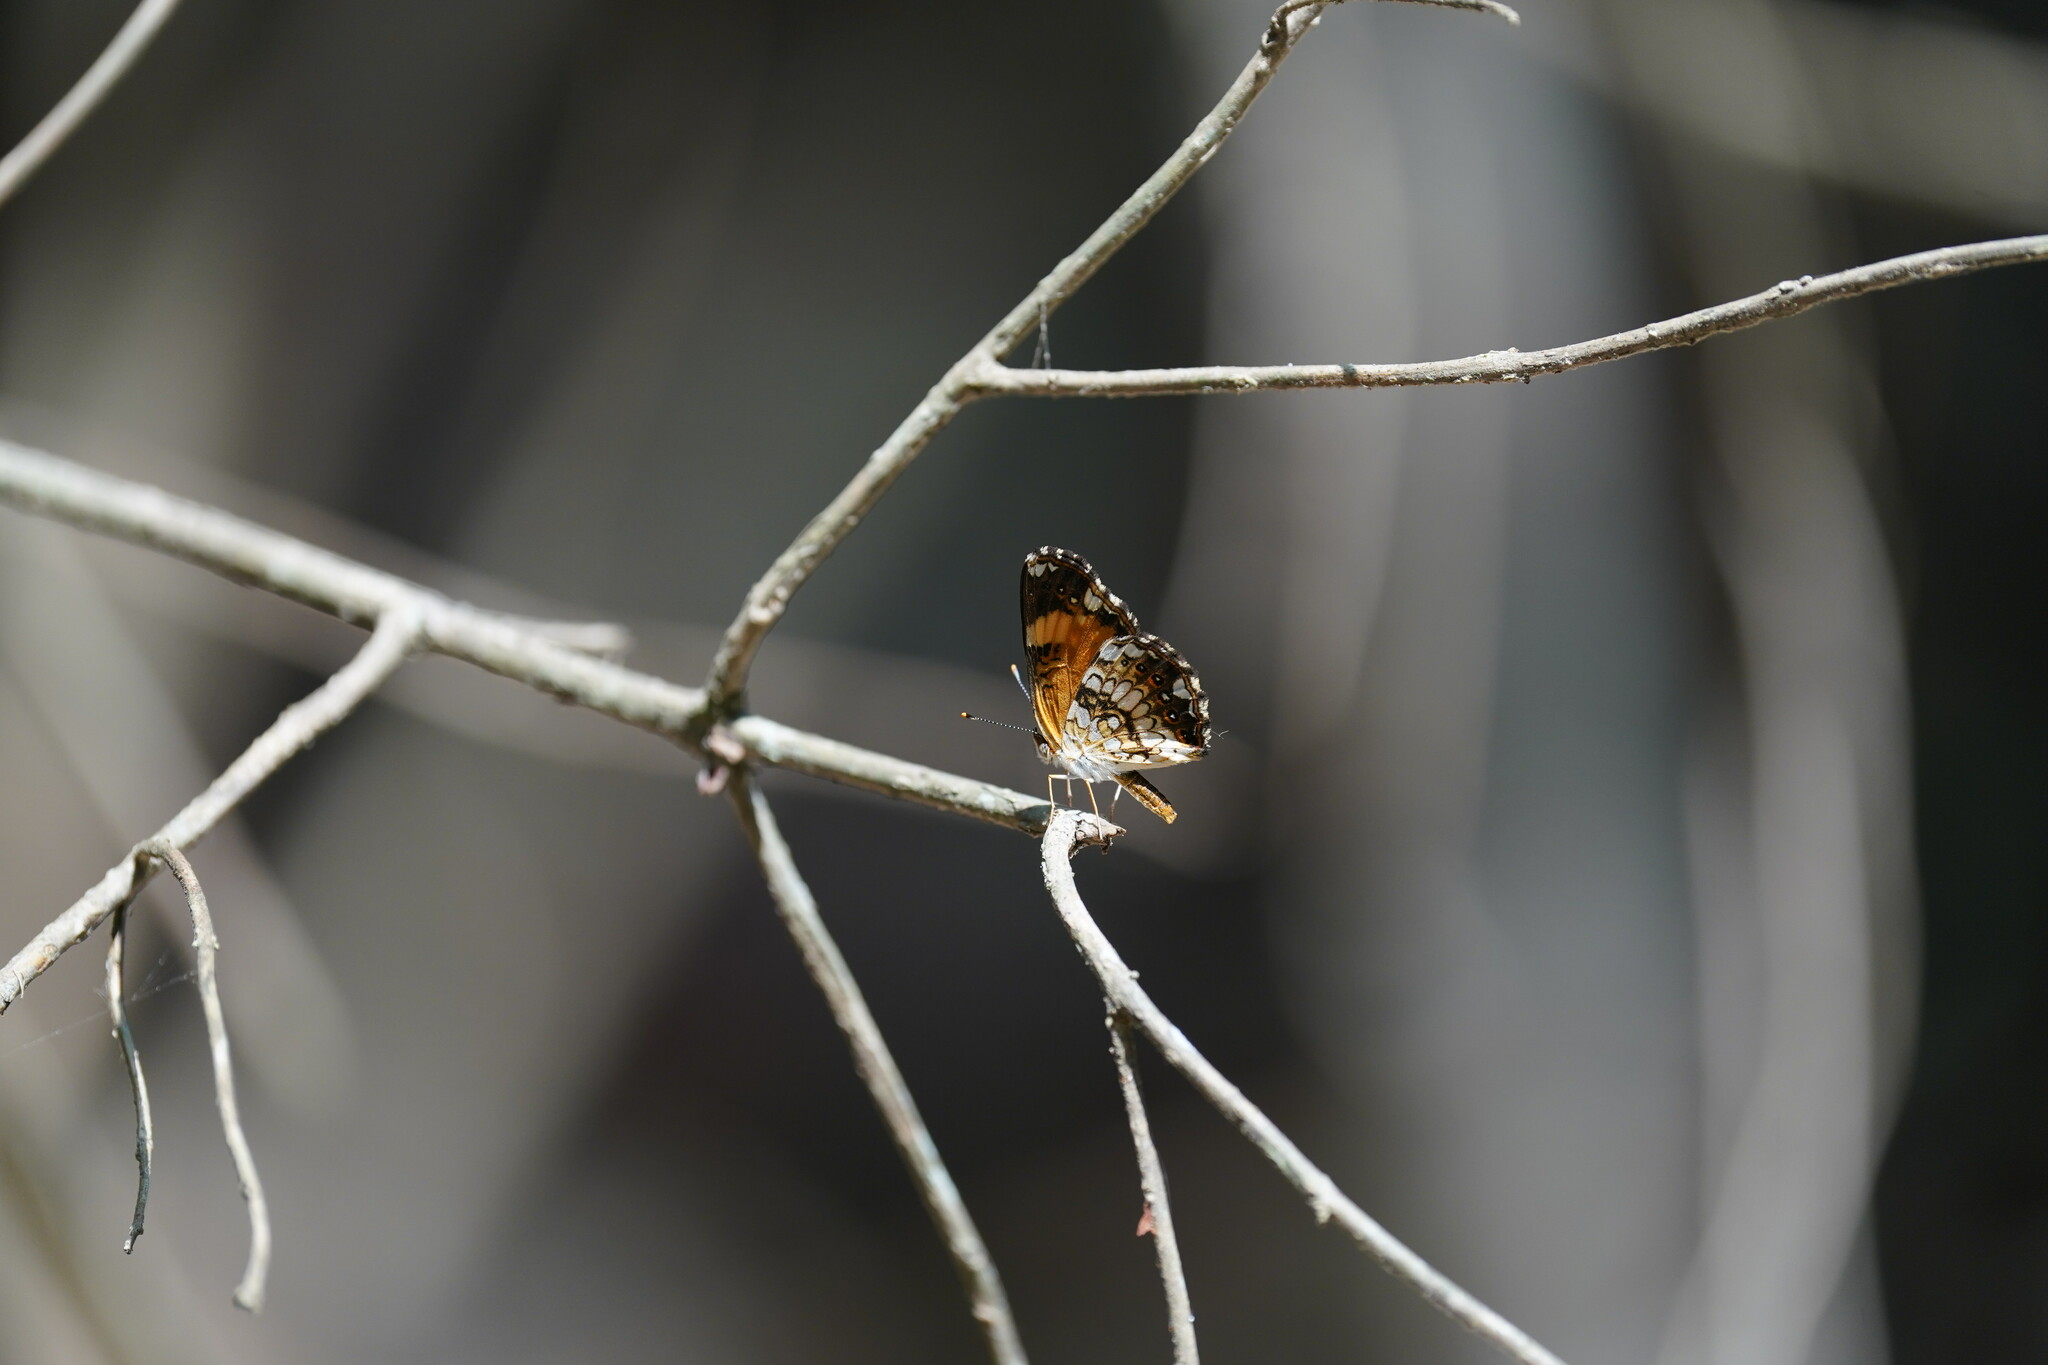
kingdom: Animalia
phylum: Arthropoda
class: Insecta
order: Lepidoptera
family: Nymphalidae
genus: Chlosyne
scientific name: Chlosyne nycteis
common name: Silvery checkerspot
